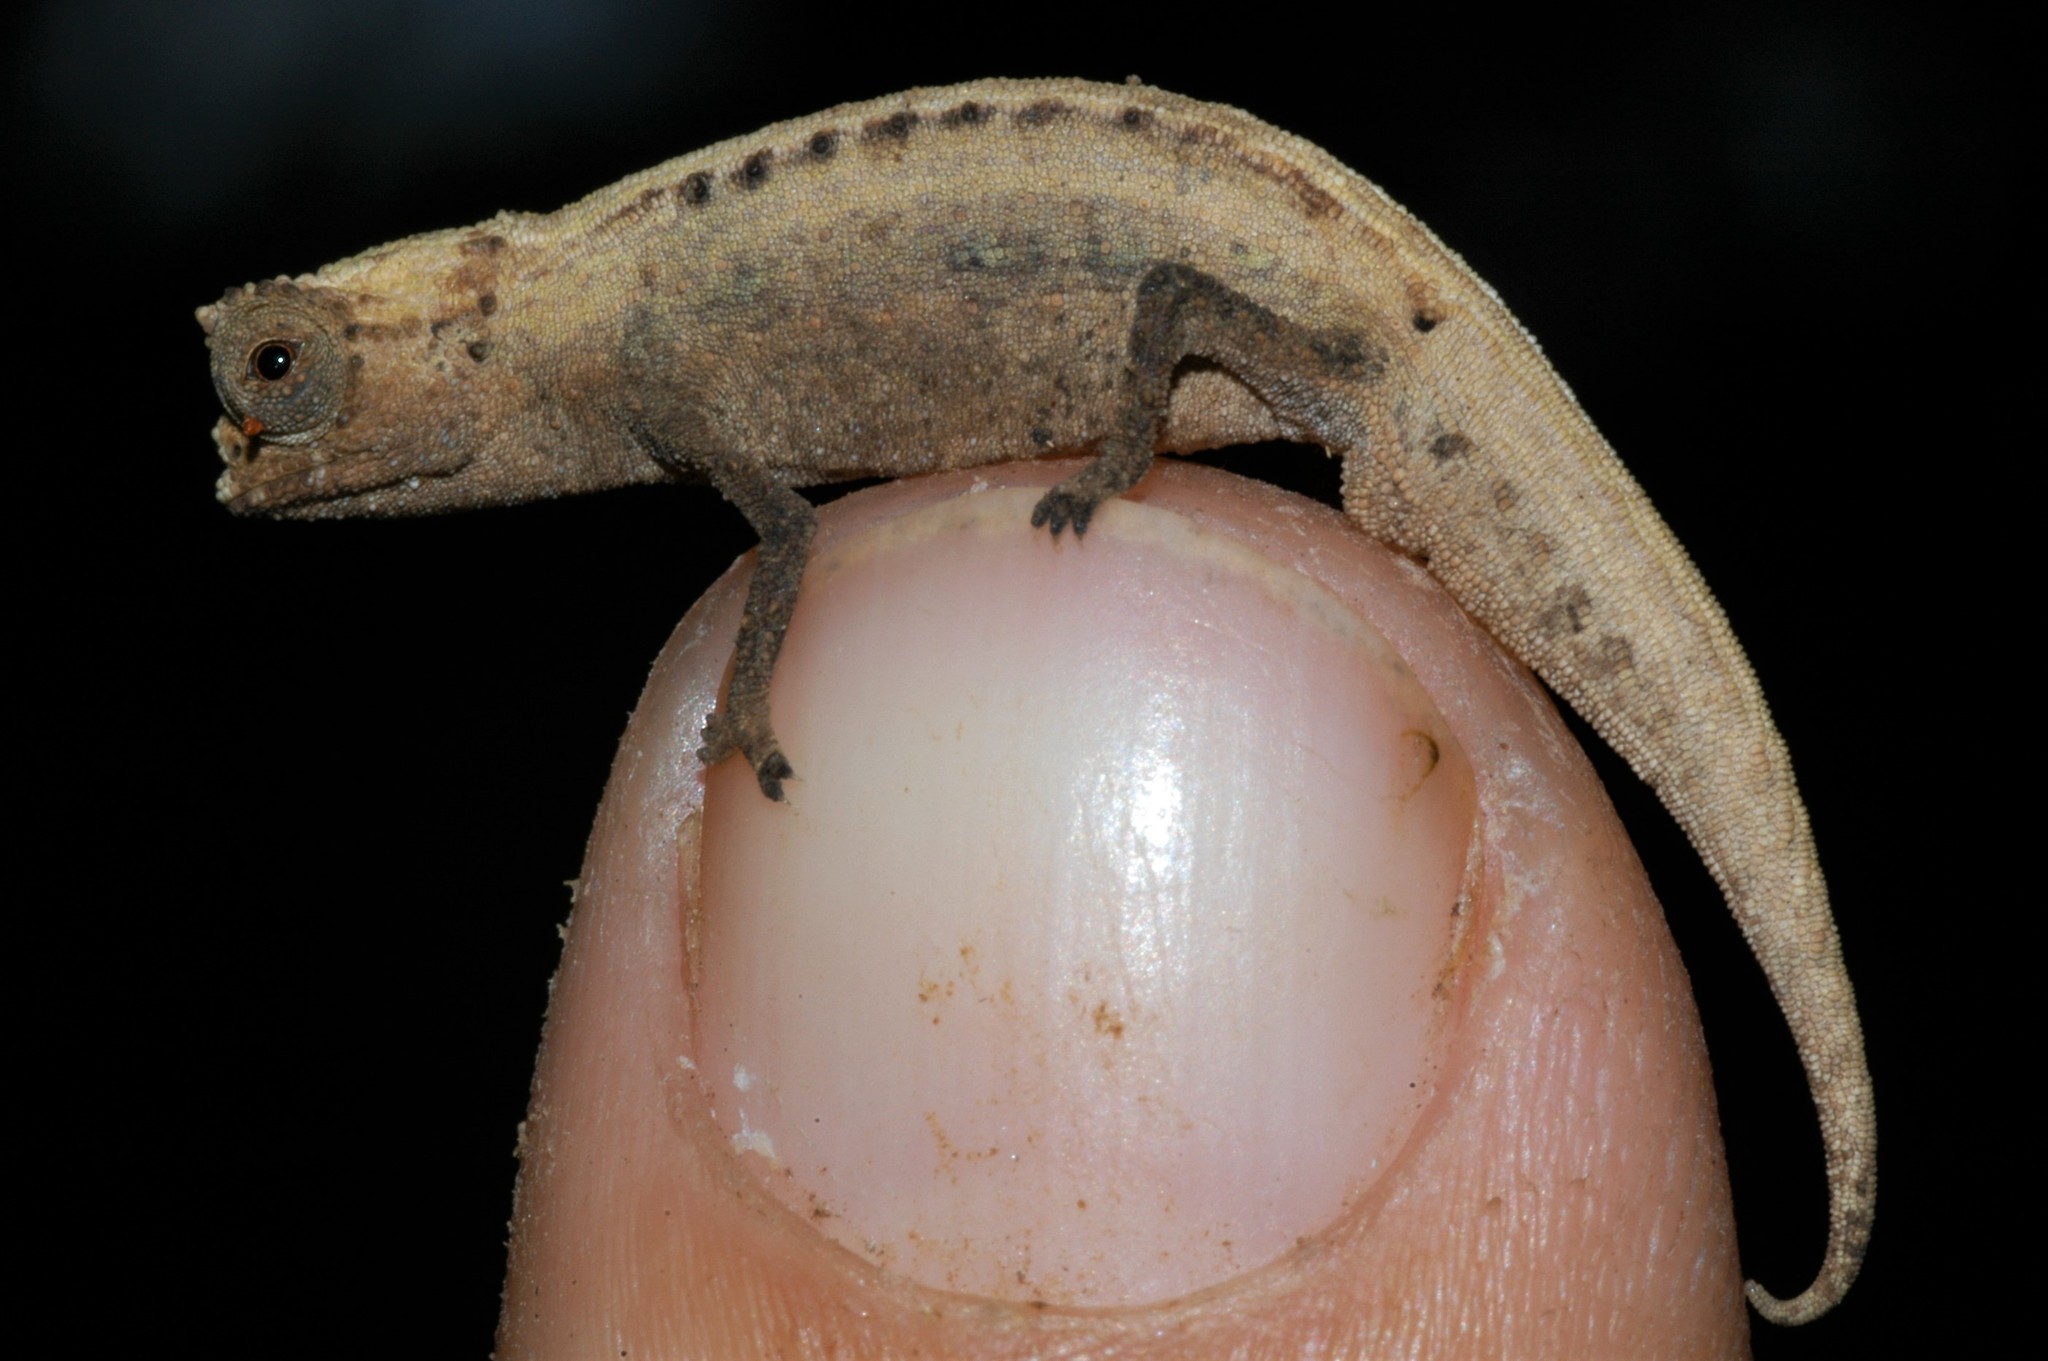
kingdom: Animalia
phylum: Chordata
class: Squamata
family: Chamaeleonidae
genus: Brookesia
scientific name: Brookesia peyrierasi
